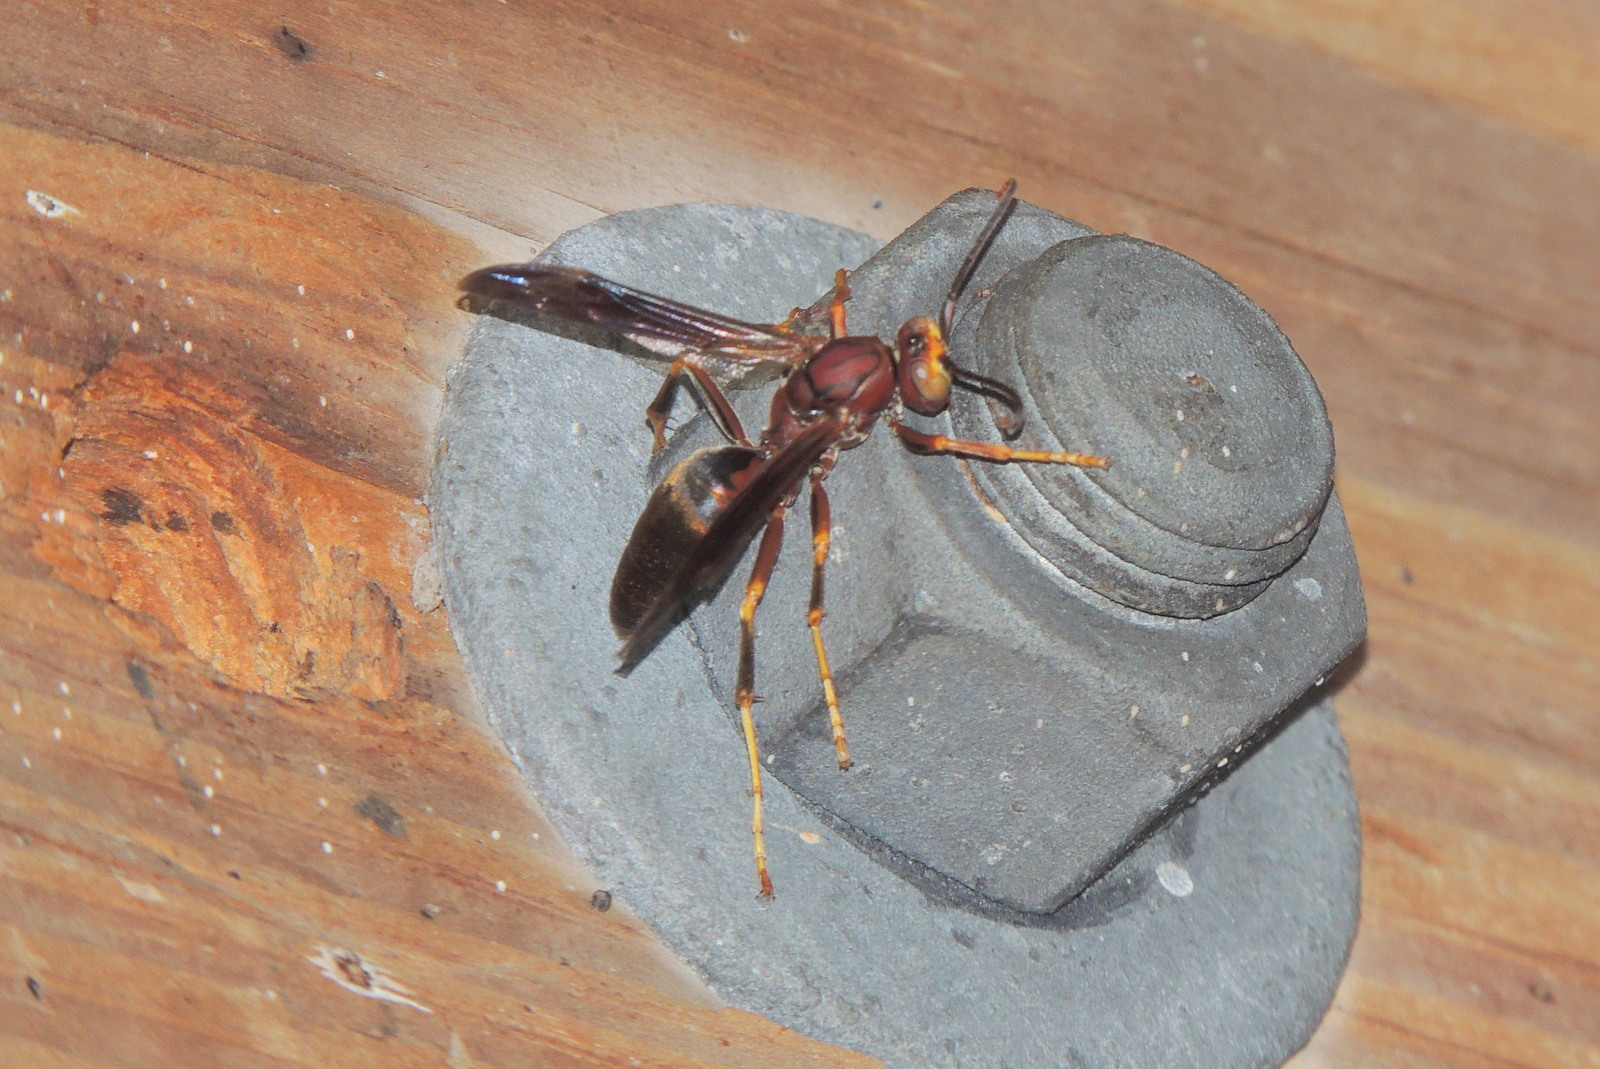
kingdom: Animalia
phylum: Arthropoda
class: Insecta
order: Hymenoptera
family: Eumenidae
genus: Polistes
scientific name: Polistes metricus
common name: Metric paper wasp
